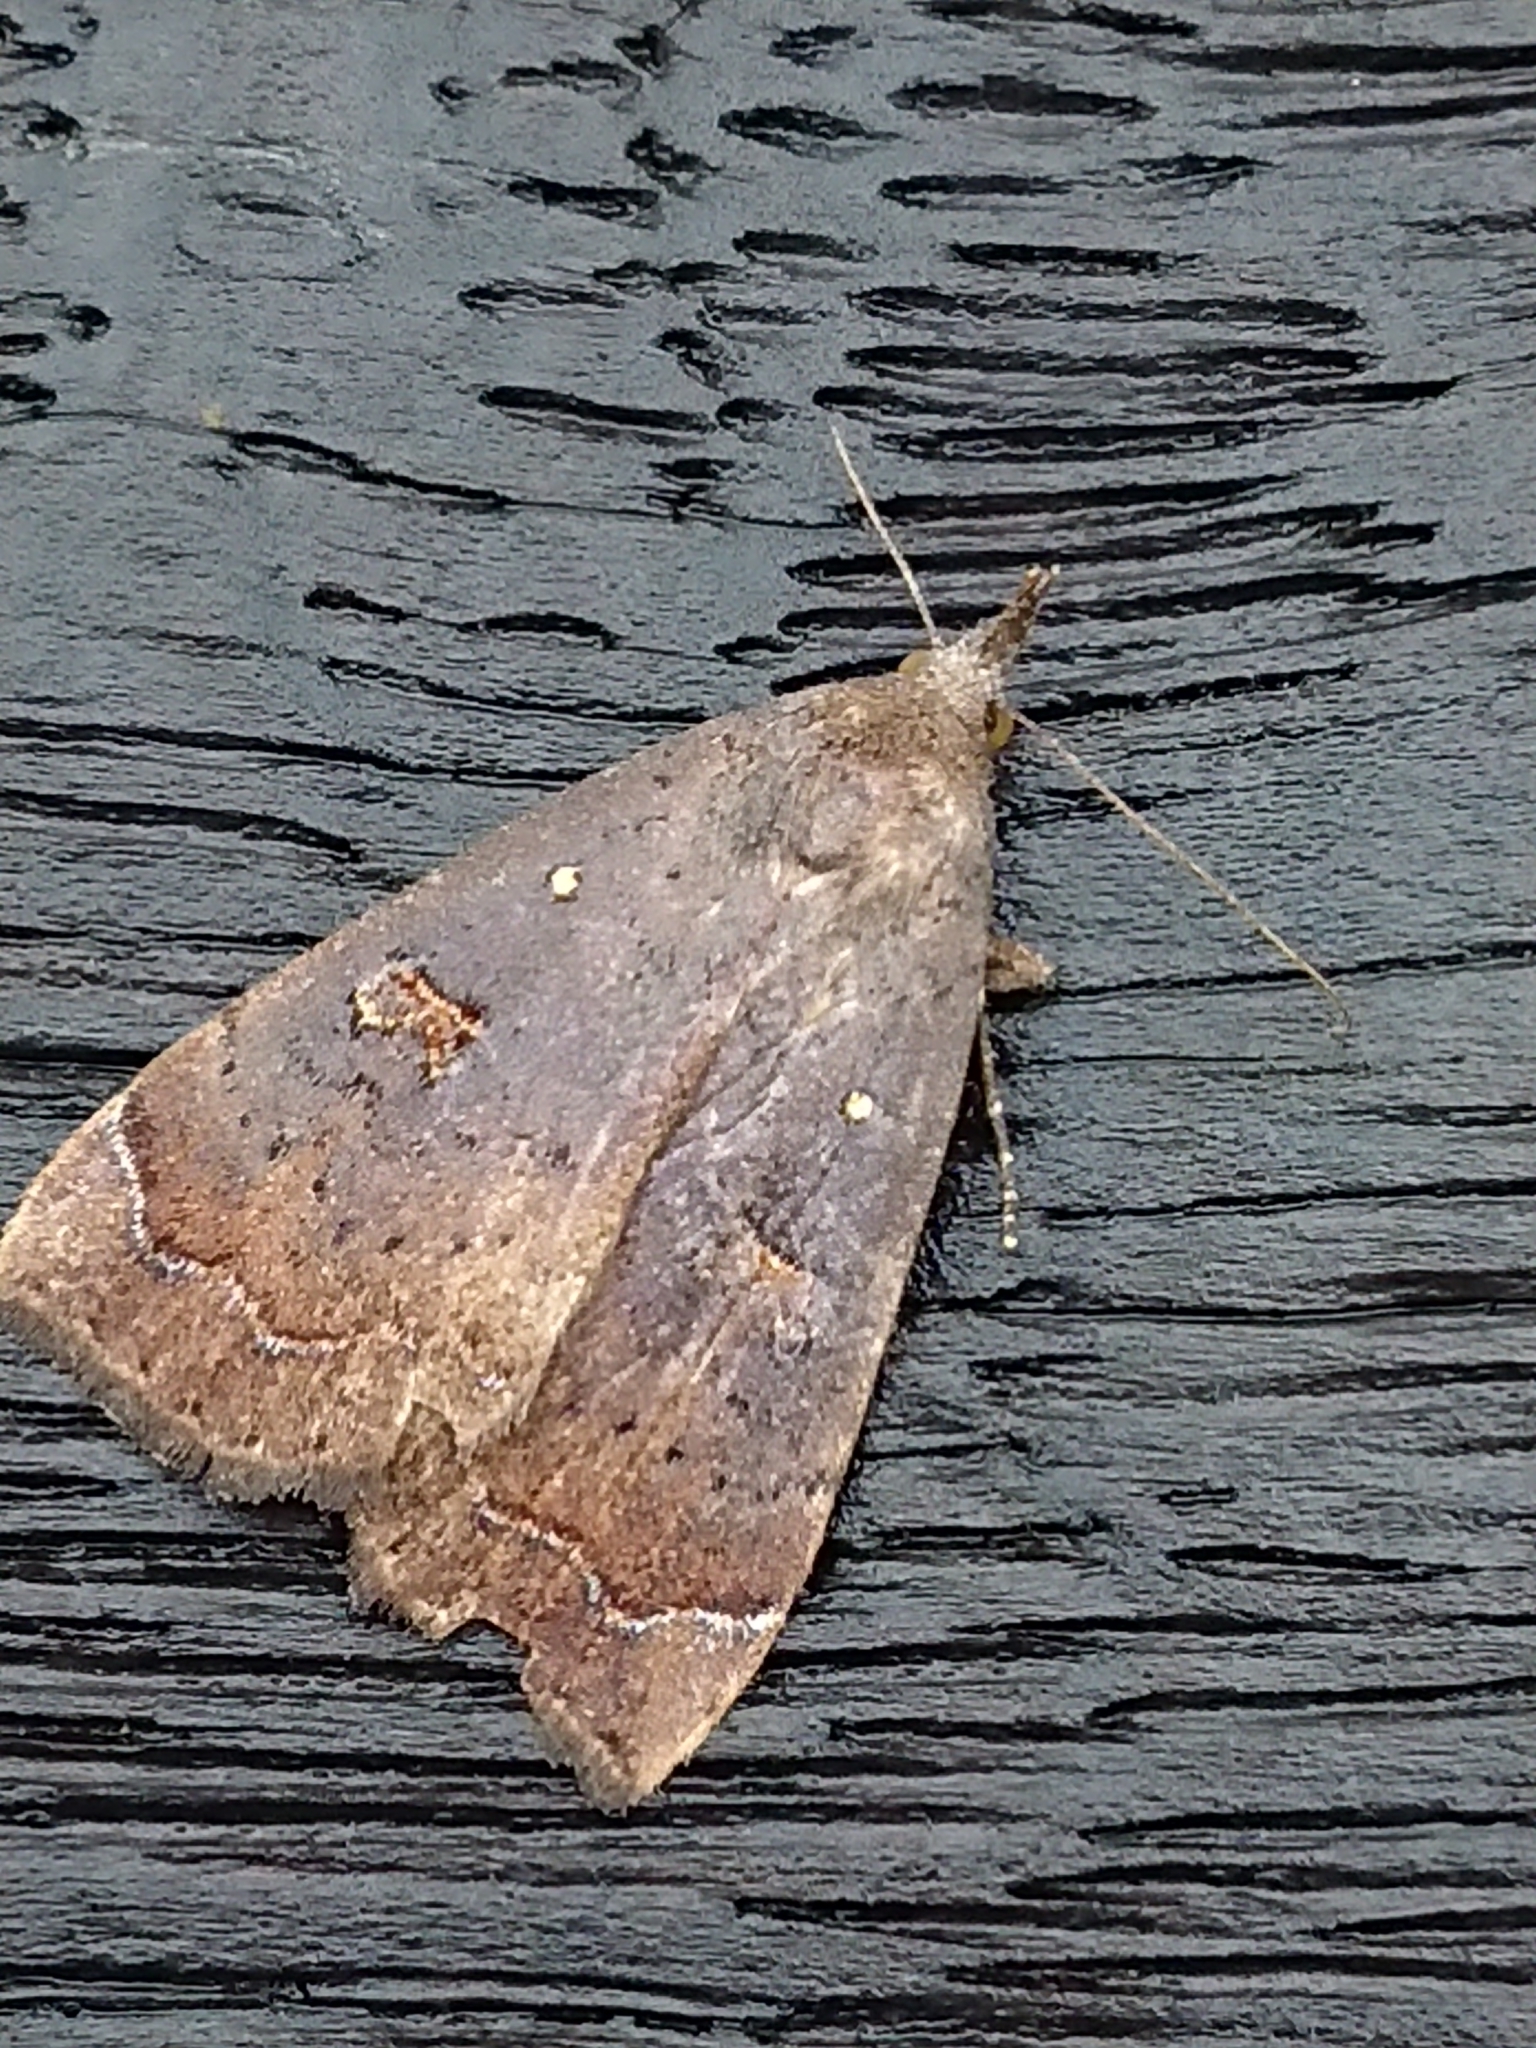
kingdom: Animalia
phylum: Arthropoda
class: Insecta
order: Lepidoptera
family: Erebidae
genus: Rhapsa
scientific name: Rhapsa scotosialis
